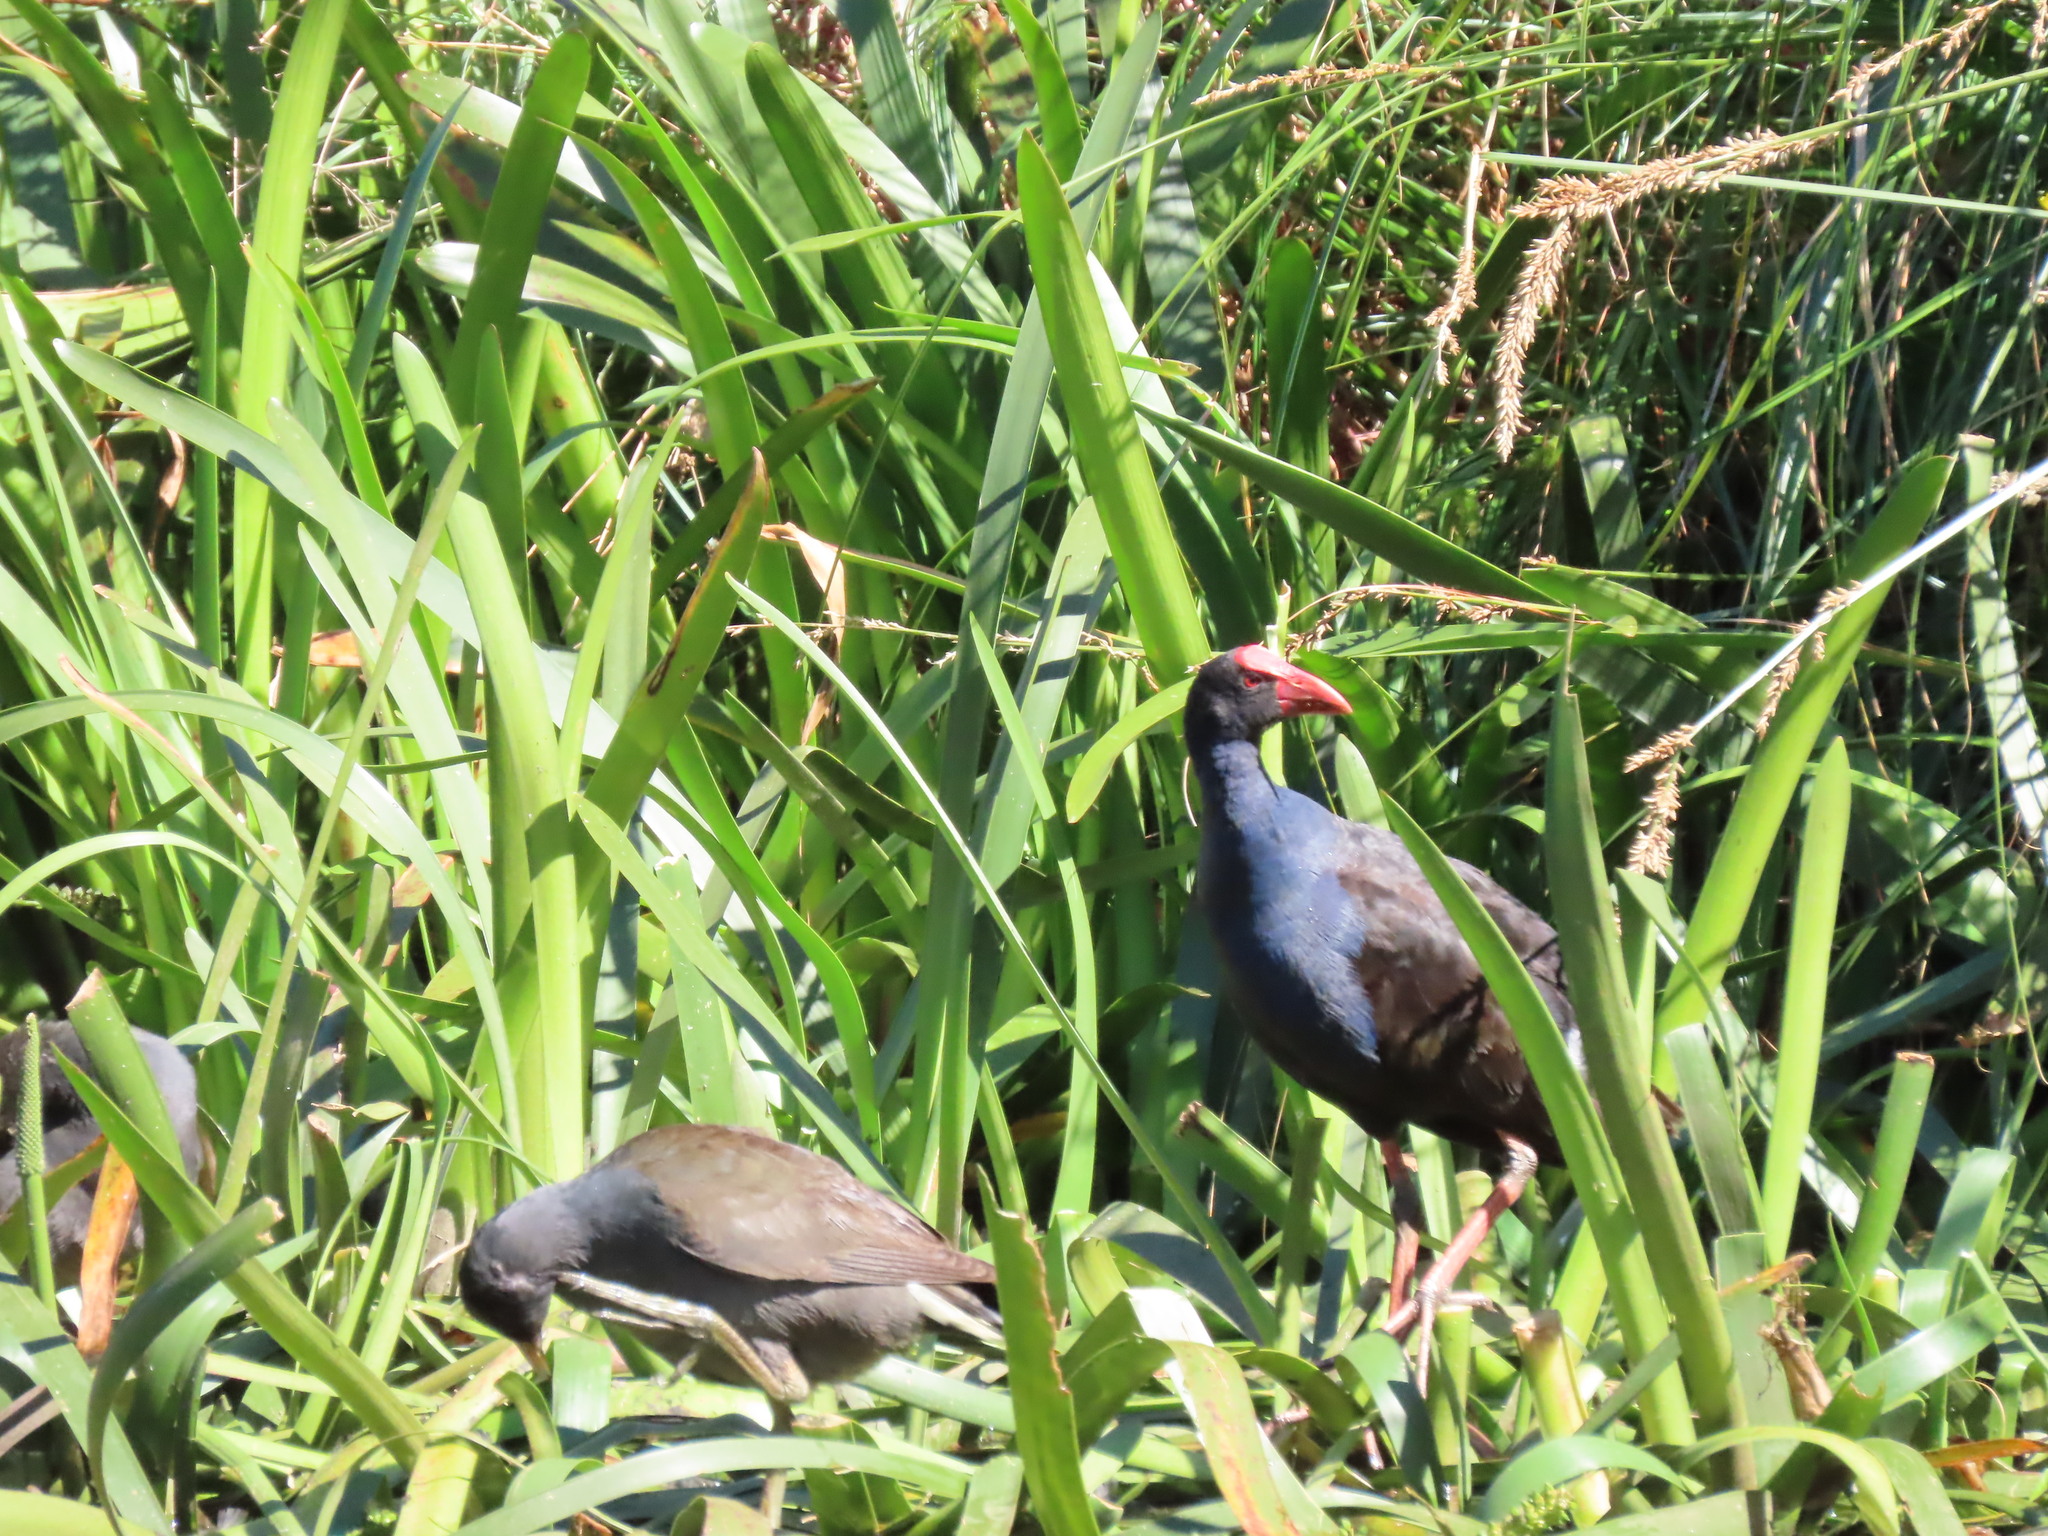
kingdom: Animalia
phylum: Chordata
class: Aves
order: Gruiformes
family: Rallidae
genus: Porphyrio
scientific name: Porphyrio melanotus
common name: Australasian swamphen
